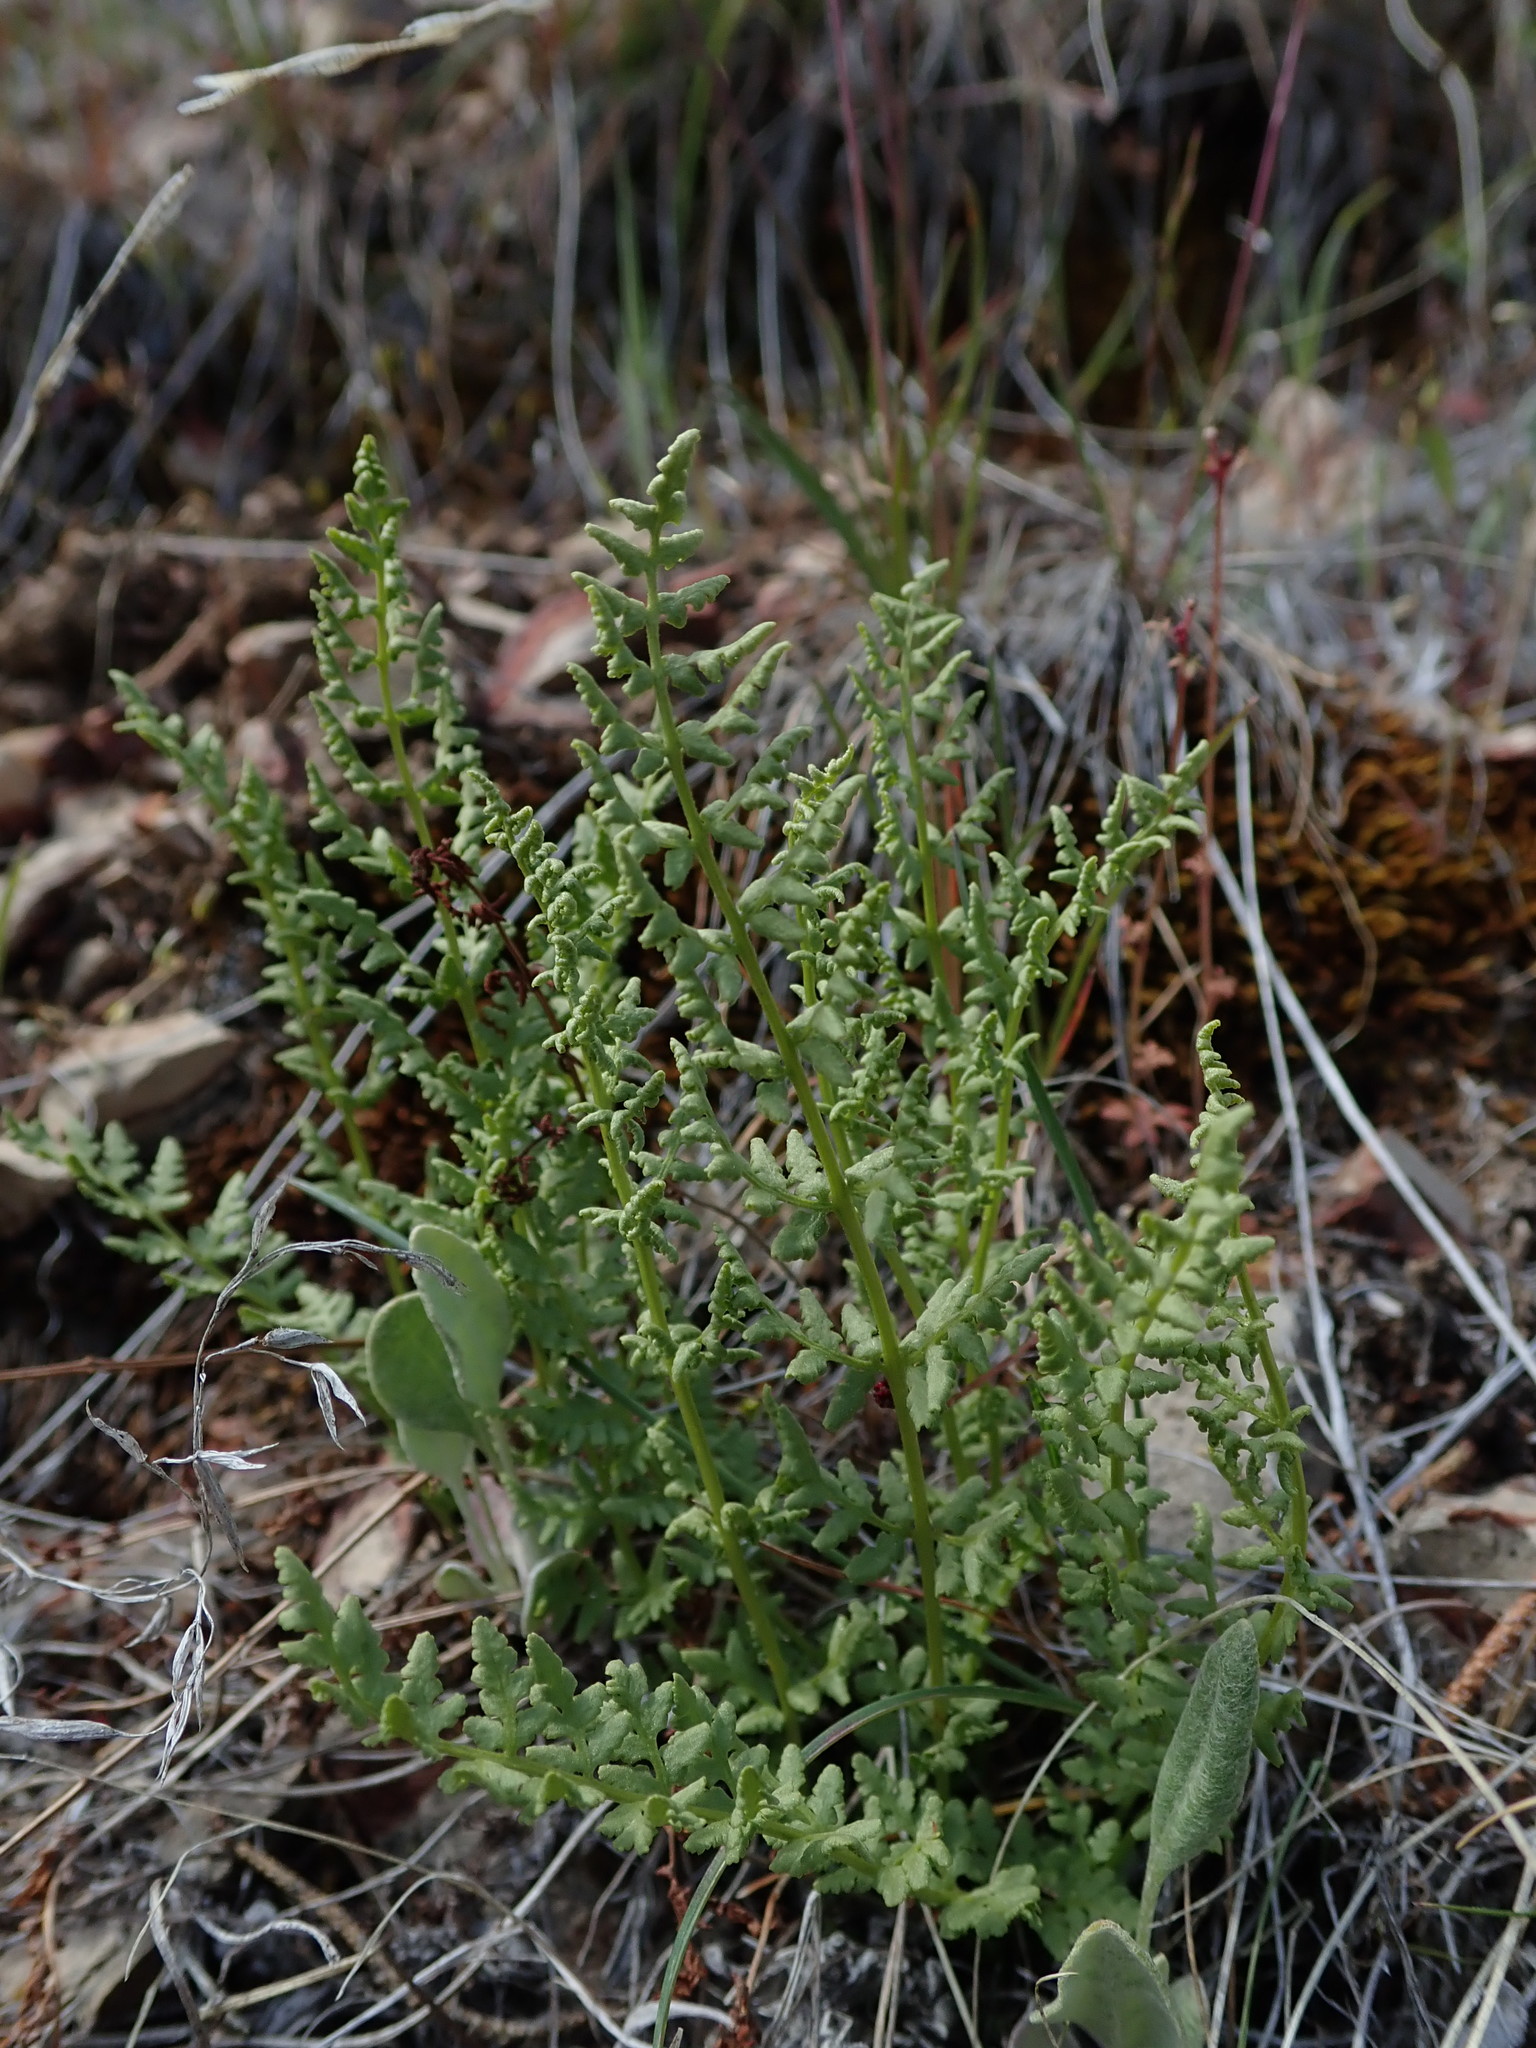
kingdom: Plantae
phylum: Tracheophyta
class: Polypodiopsida
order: Polypodiales
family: Woodsiaceae
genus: Physematium
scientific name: Physematium oreganum
